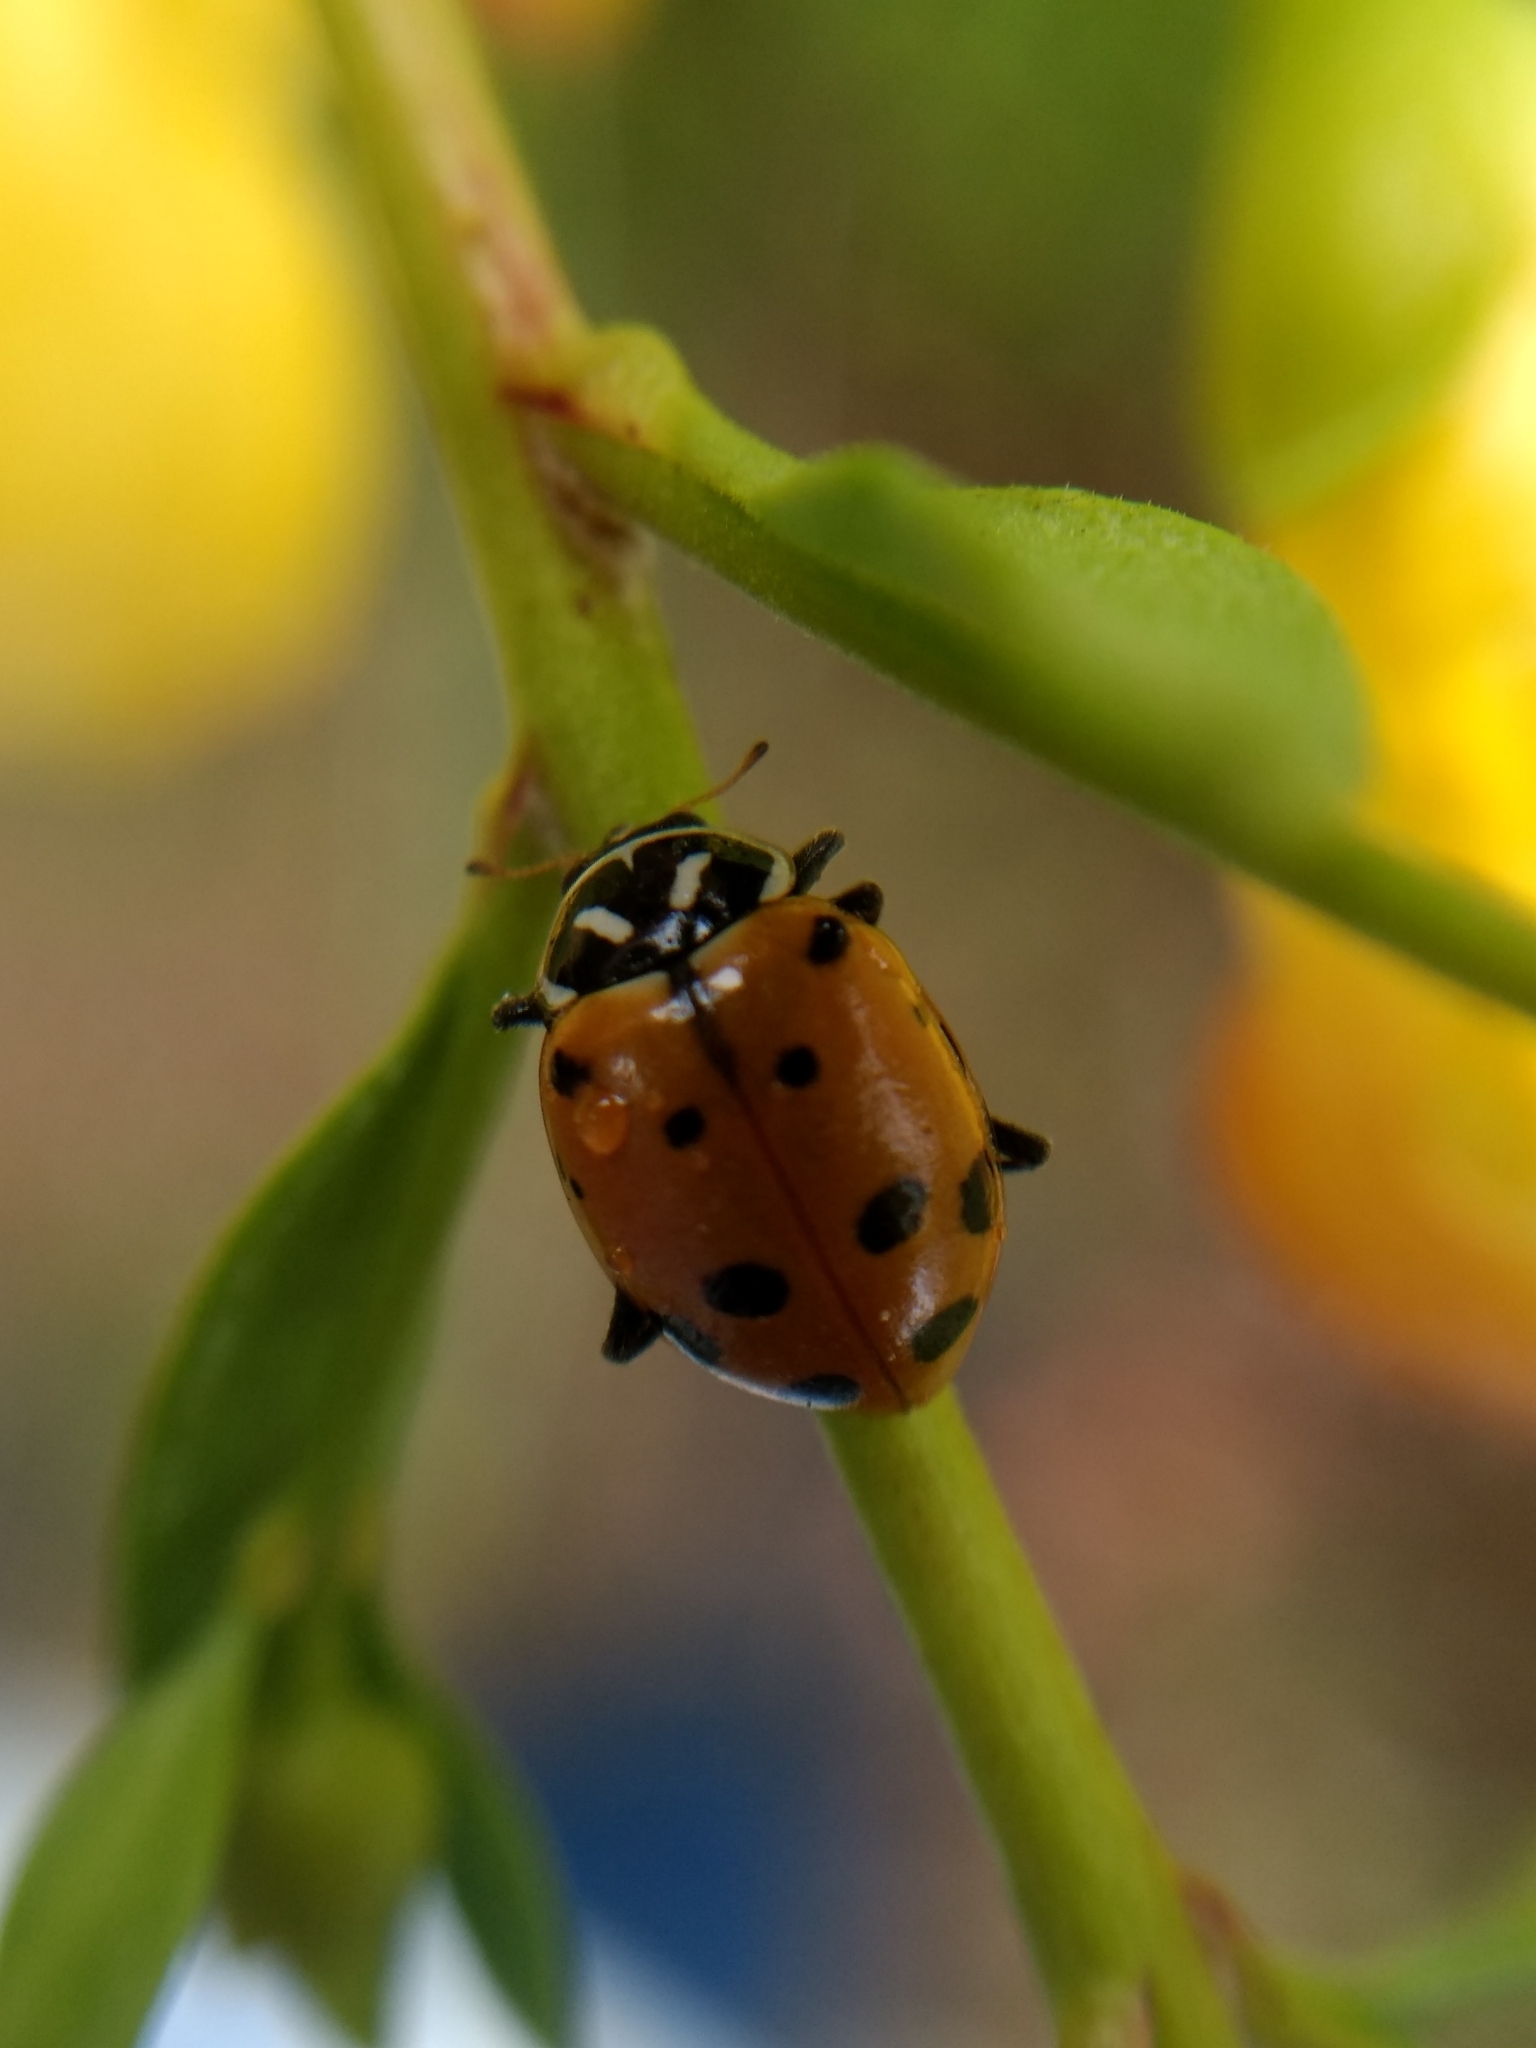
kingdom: Animalia
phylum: Arthropoda
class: Insecta
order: Coleoptera
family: Coccinellidae
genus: Hippodamia
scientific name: Hippodamia convergens
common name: Convergent lady beetle
